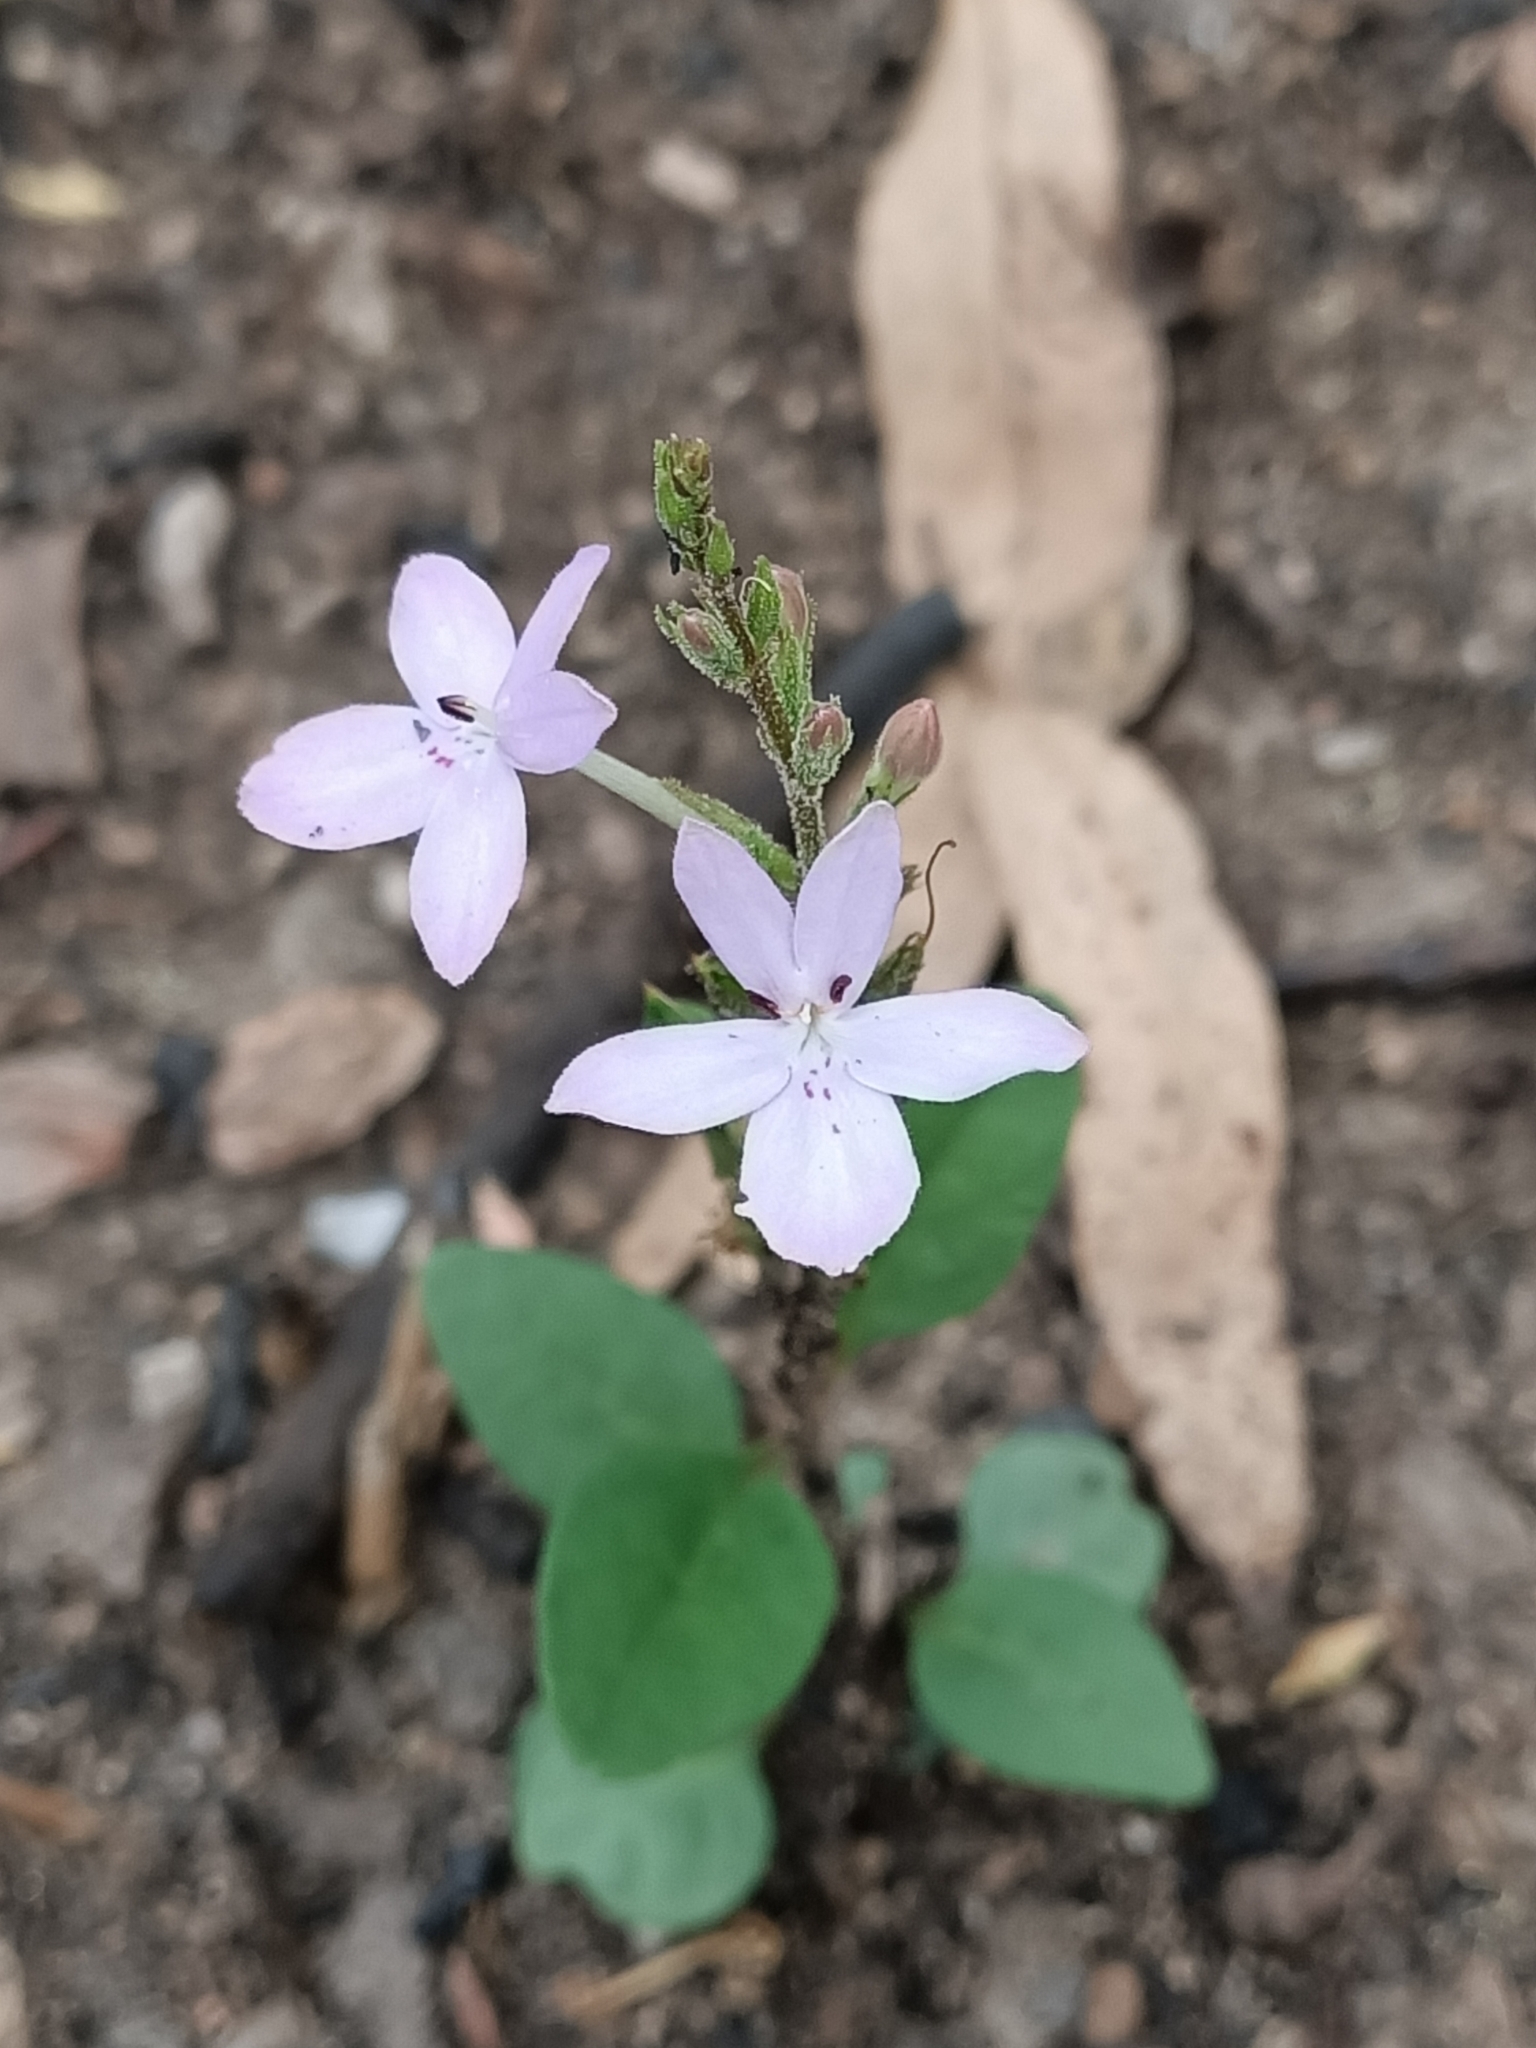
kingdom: Plantae
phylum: Tracheophyta
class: Magnoliopsida
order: Lamiales
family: Acanthaceae
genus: Pseuderanthemum
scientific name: Pseuderanthemum variabile
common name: Night and afternoon
